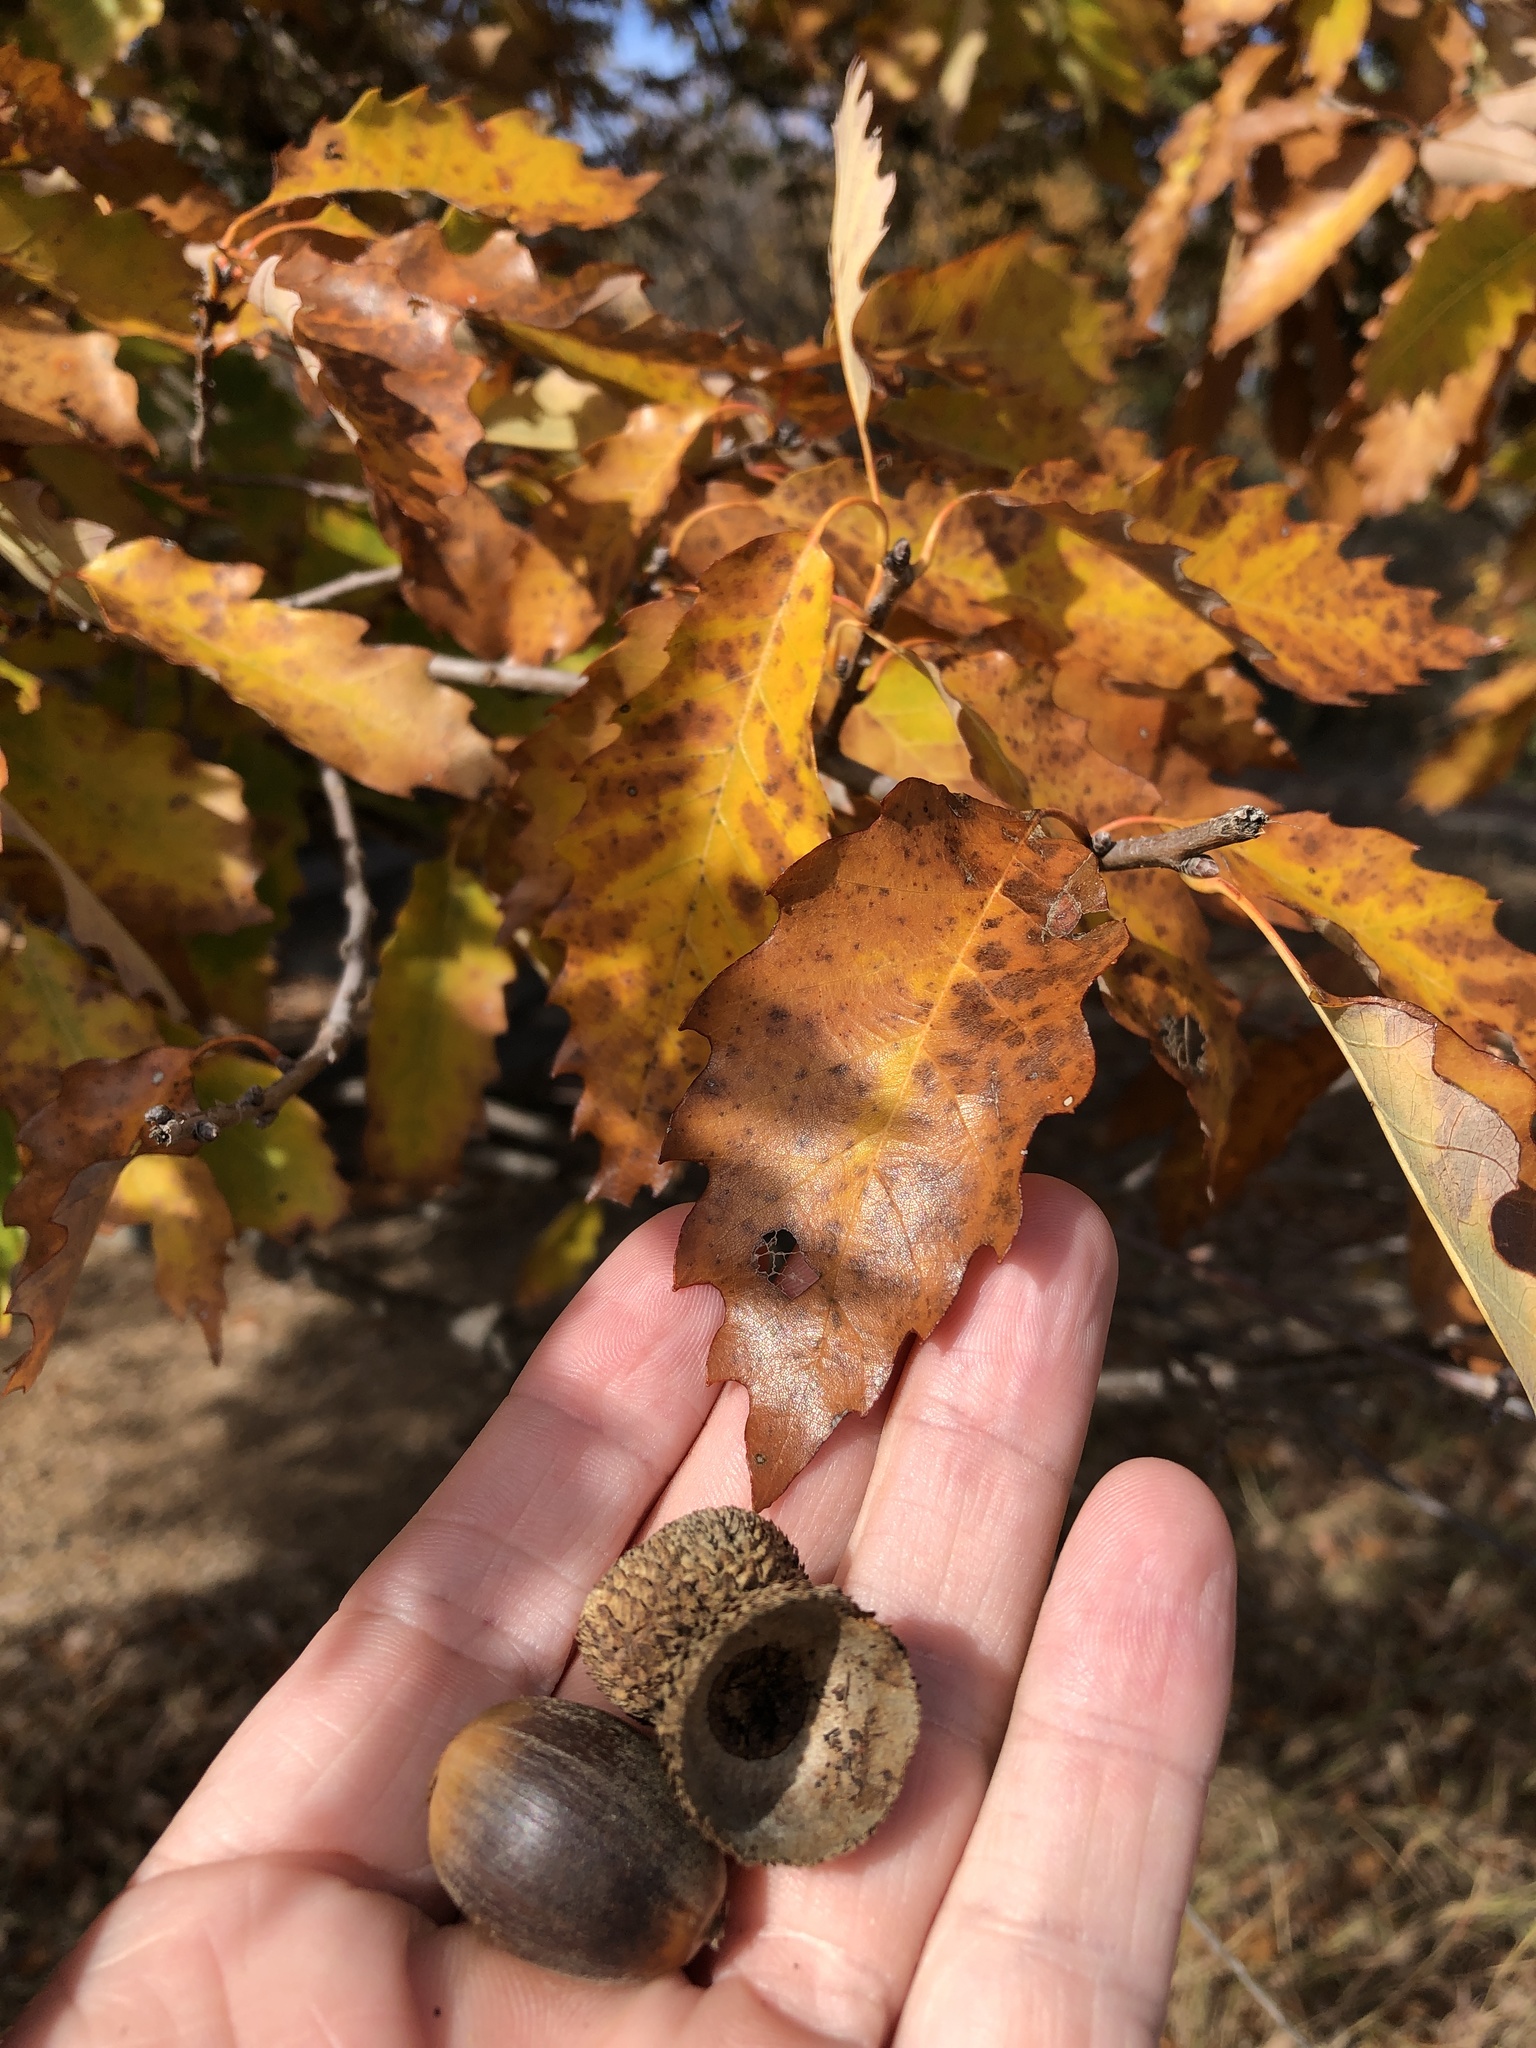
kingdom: Plantae
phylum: Tracheophyta
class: Magnoliopsida
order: Fagales
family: Fagaceae
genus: Quercus
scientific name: Quercus muehlenbergii
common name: Chinkapin oak
